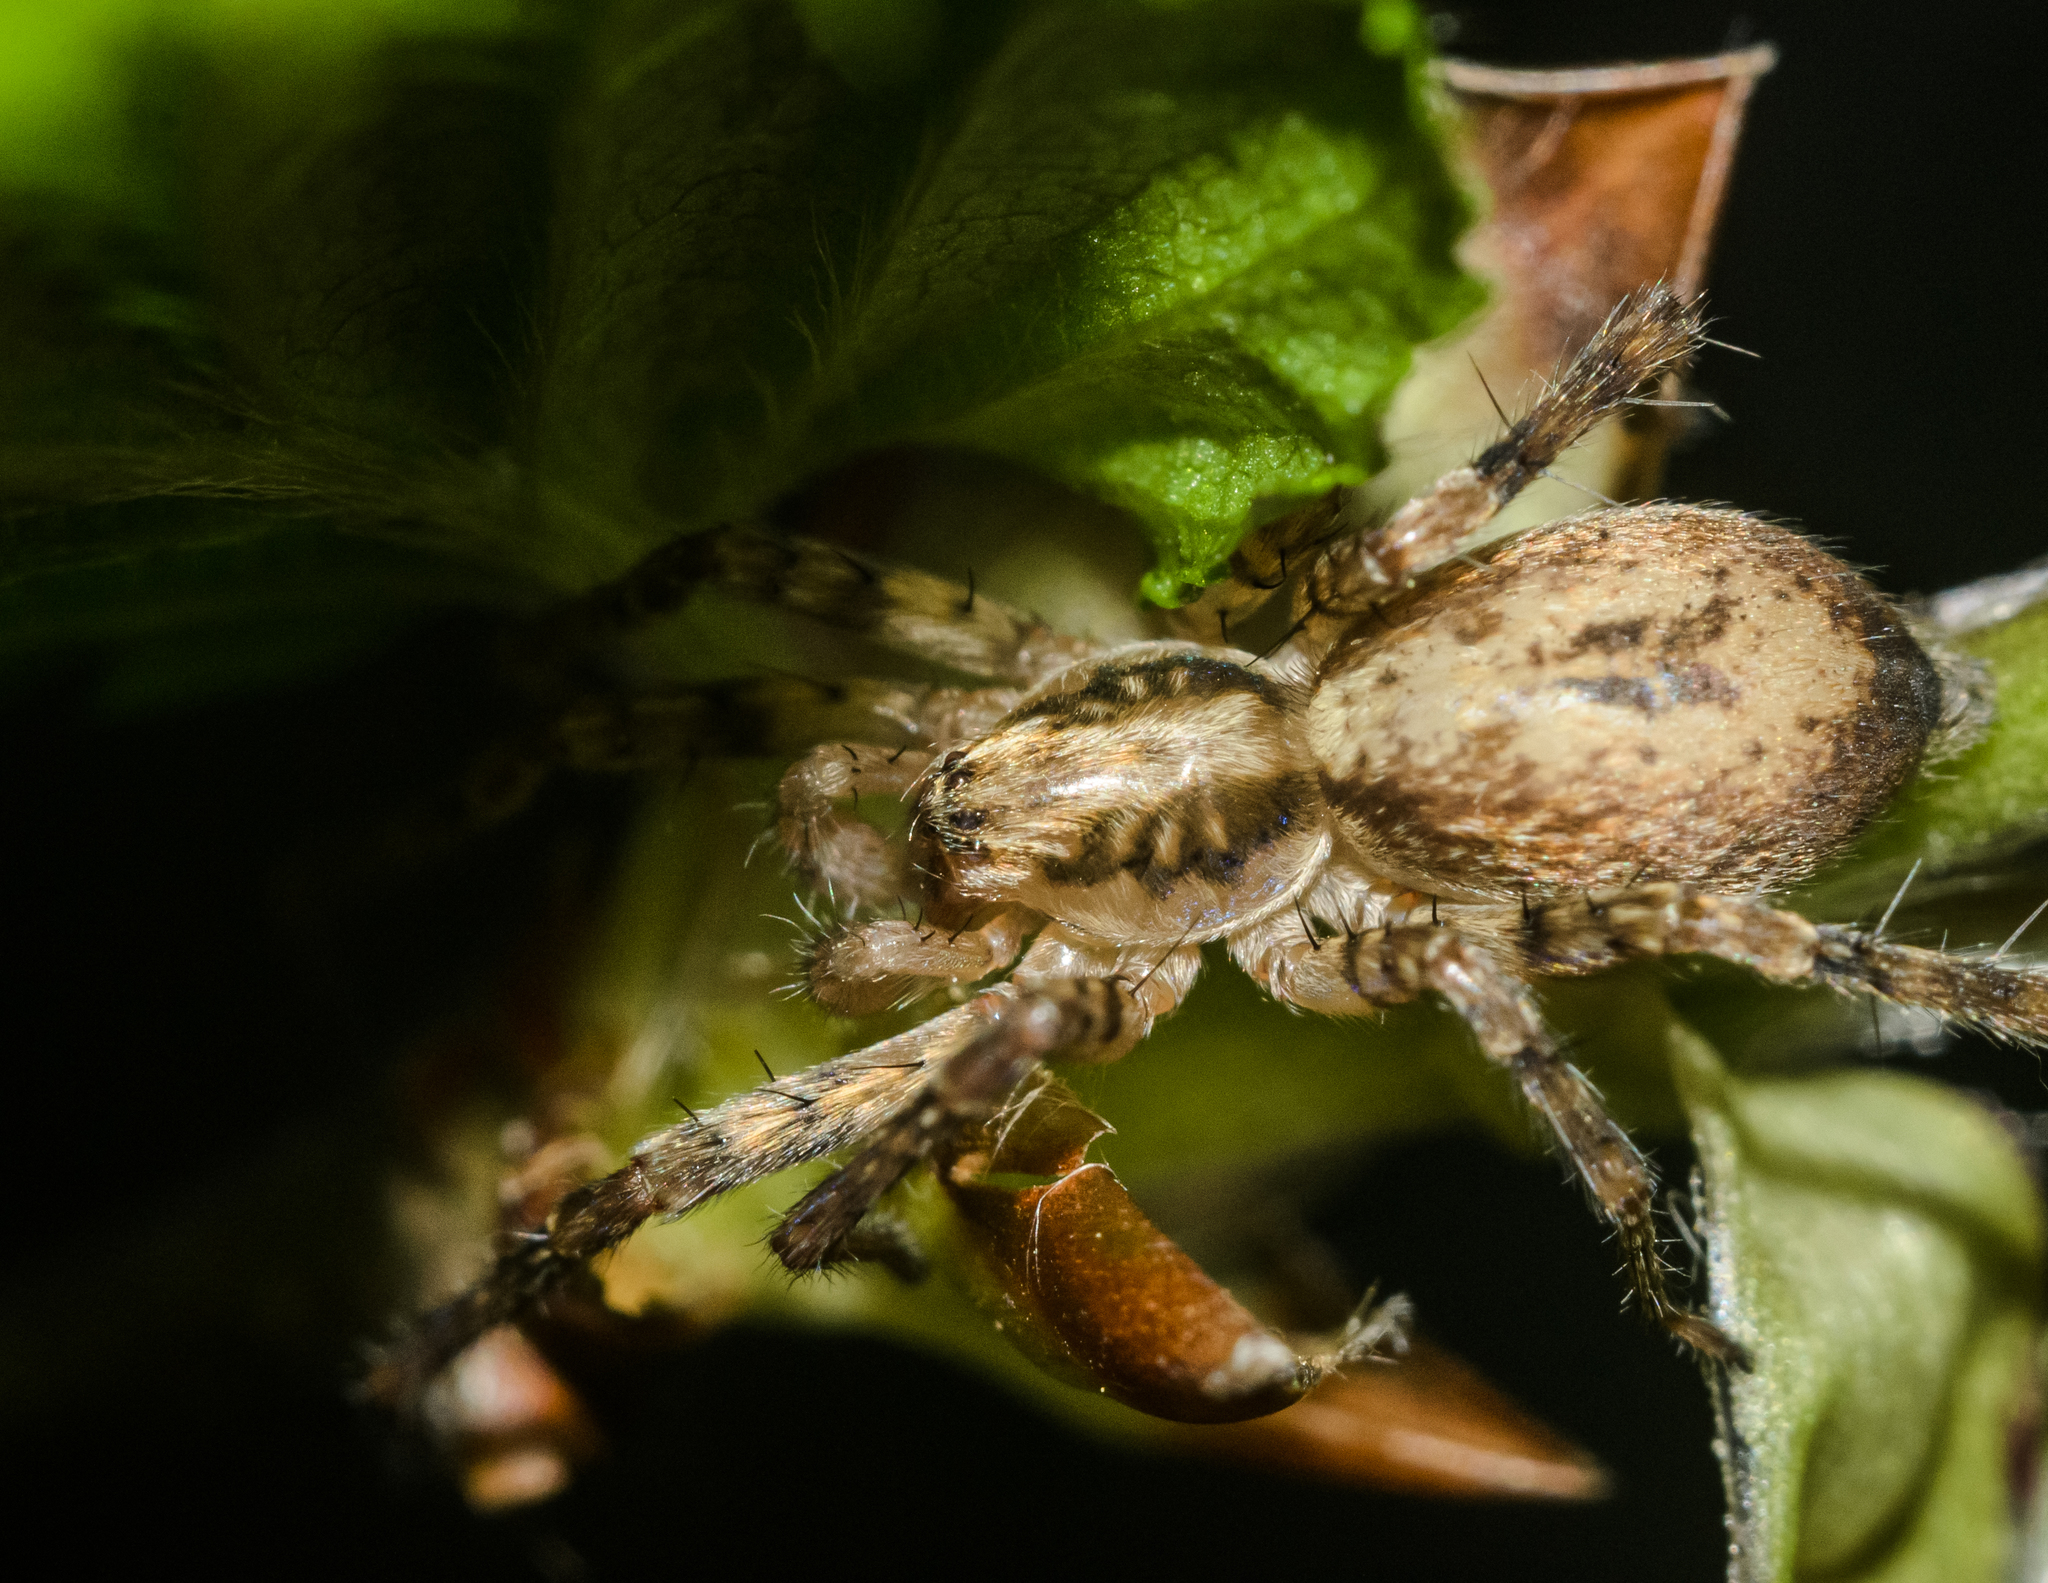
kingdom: Animalia
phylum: Arthropoda
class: Arachnida
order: Araneae
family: Anyphaenidae
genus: Anyphaena
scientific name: Anyphaena accentuata
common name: Buzzing spider
